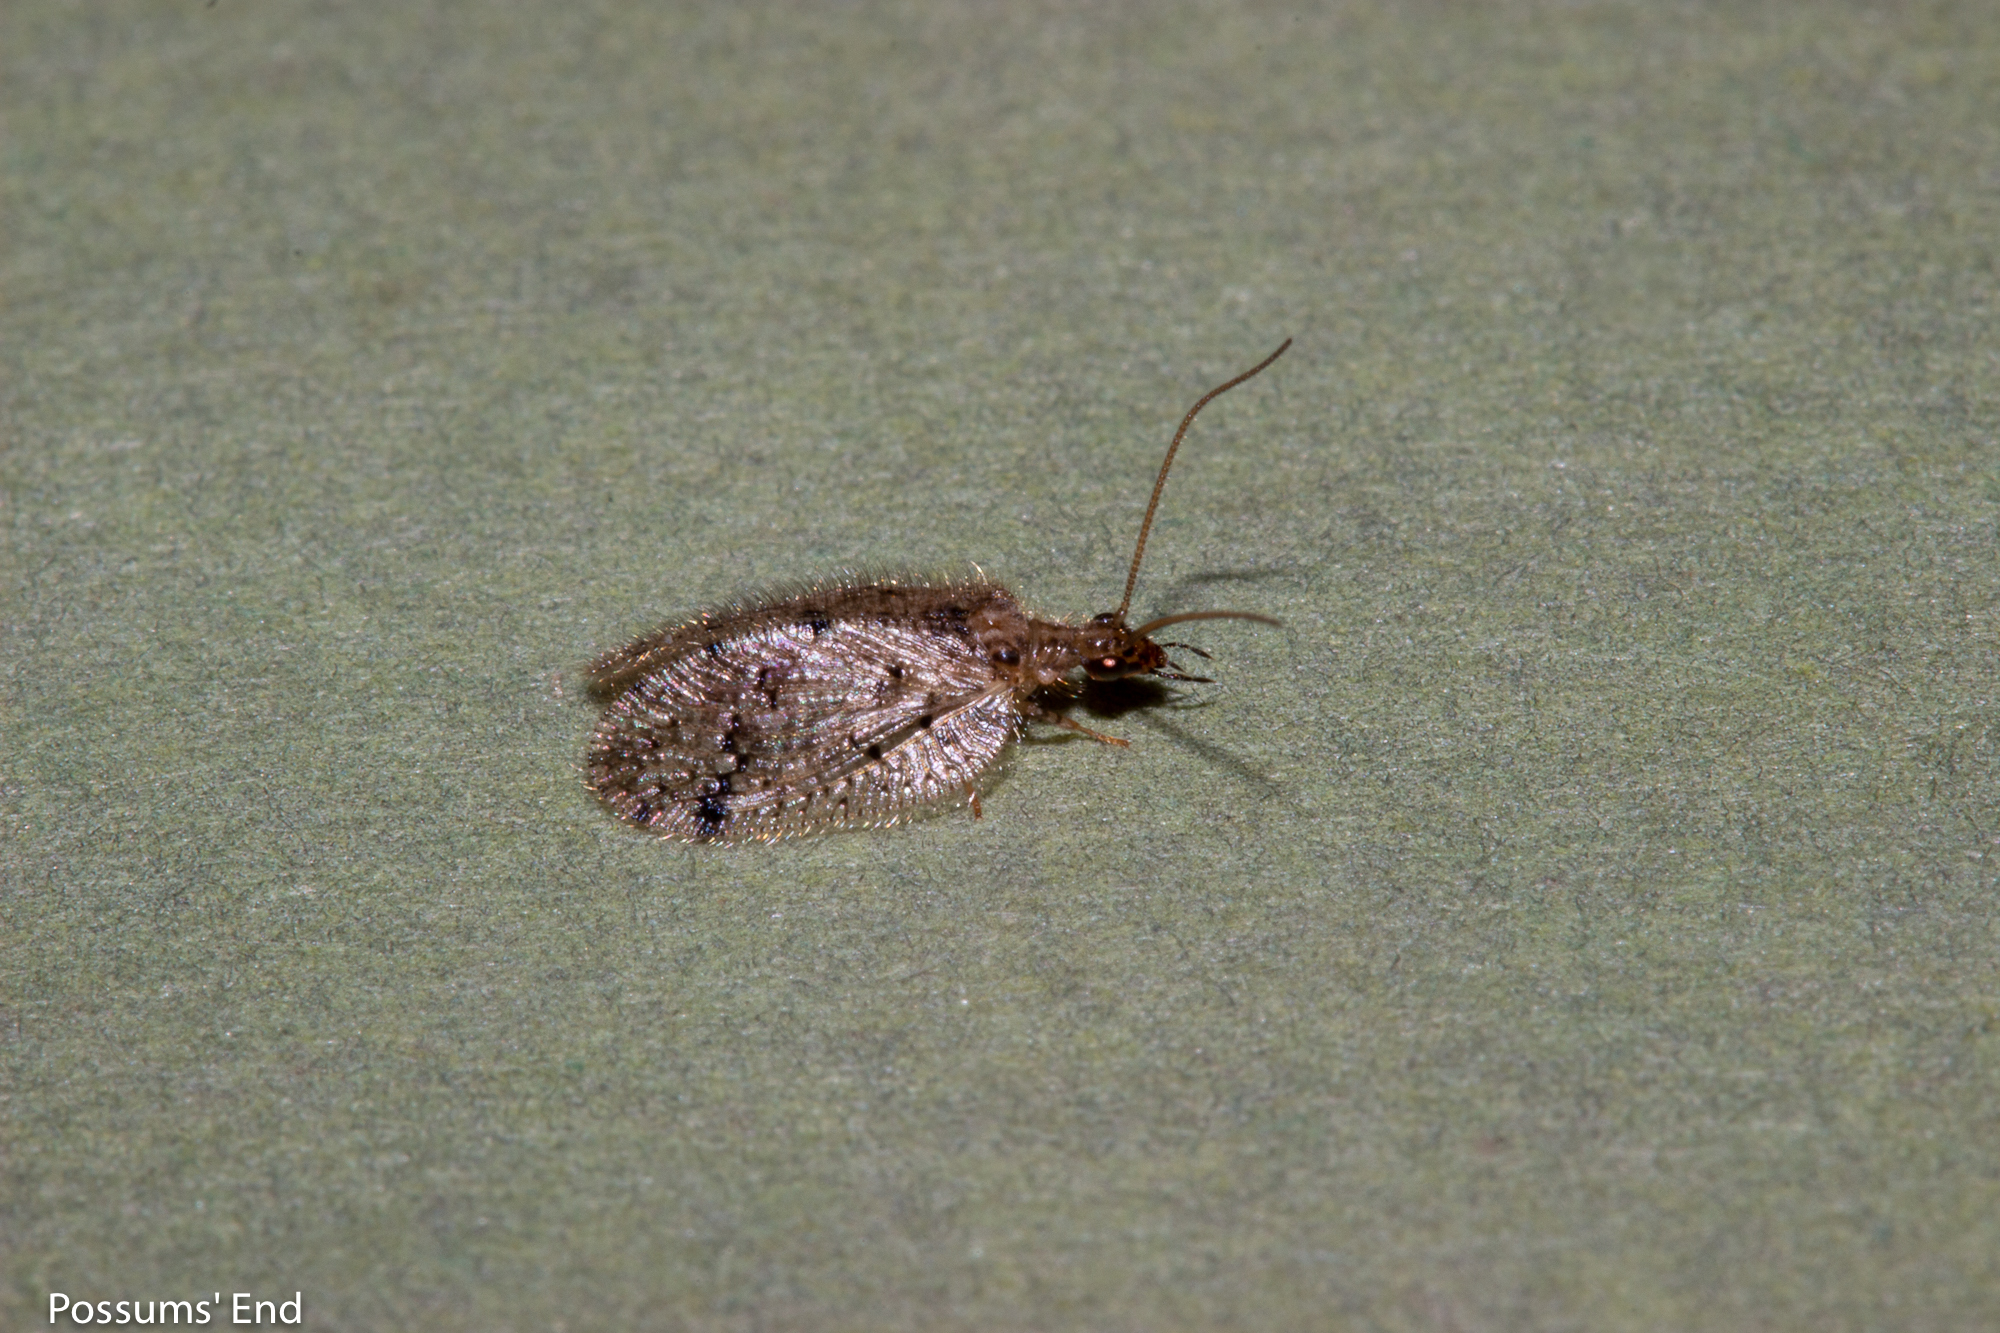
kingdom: Animalia
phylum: Arthropoda
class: Insecta
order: Neuroptera
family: Hemerobiidae
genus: Psectra
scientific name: Psectra nakaharai
